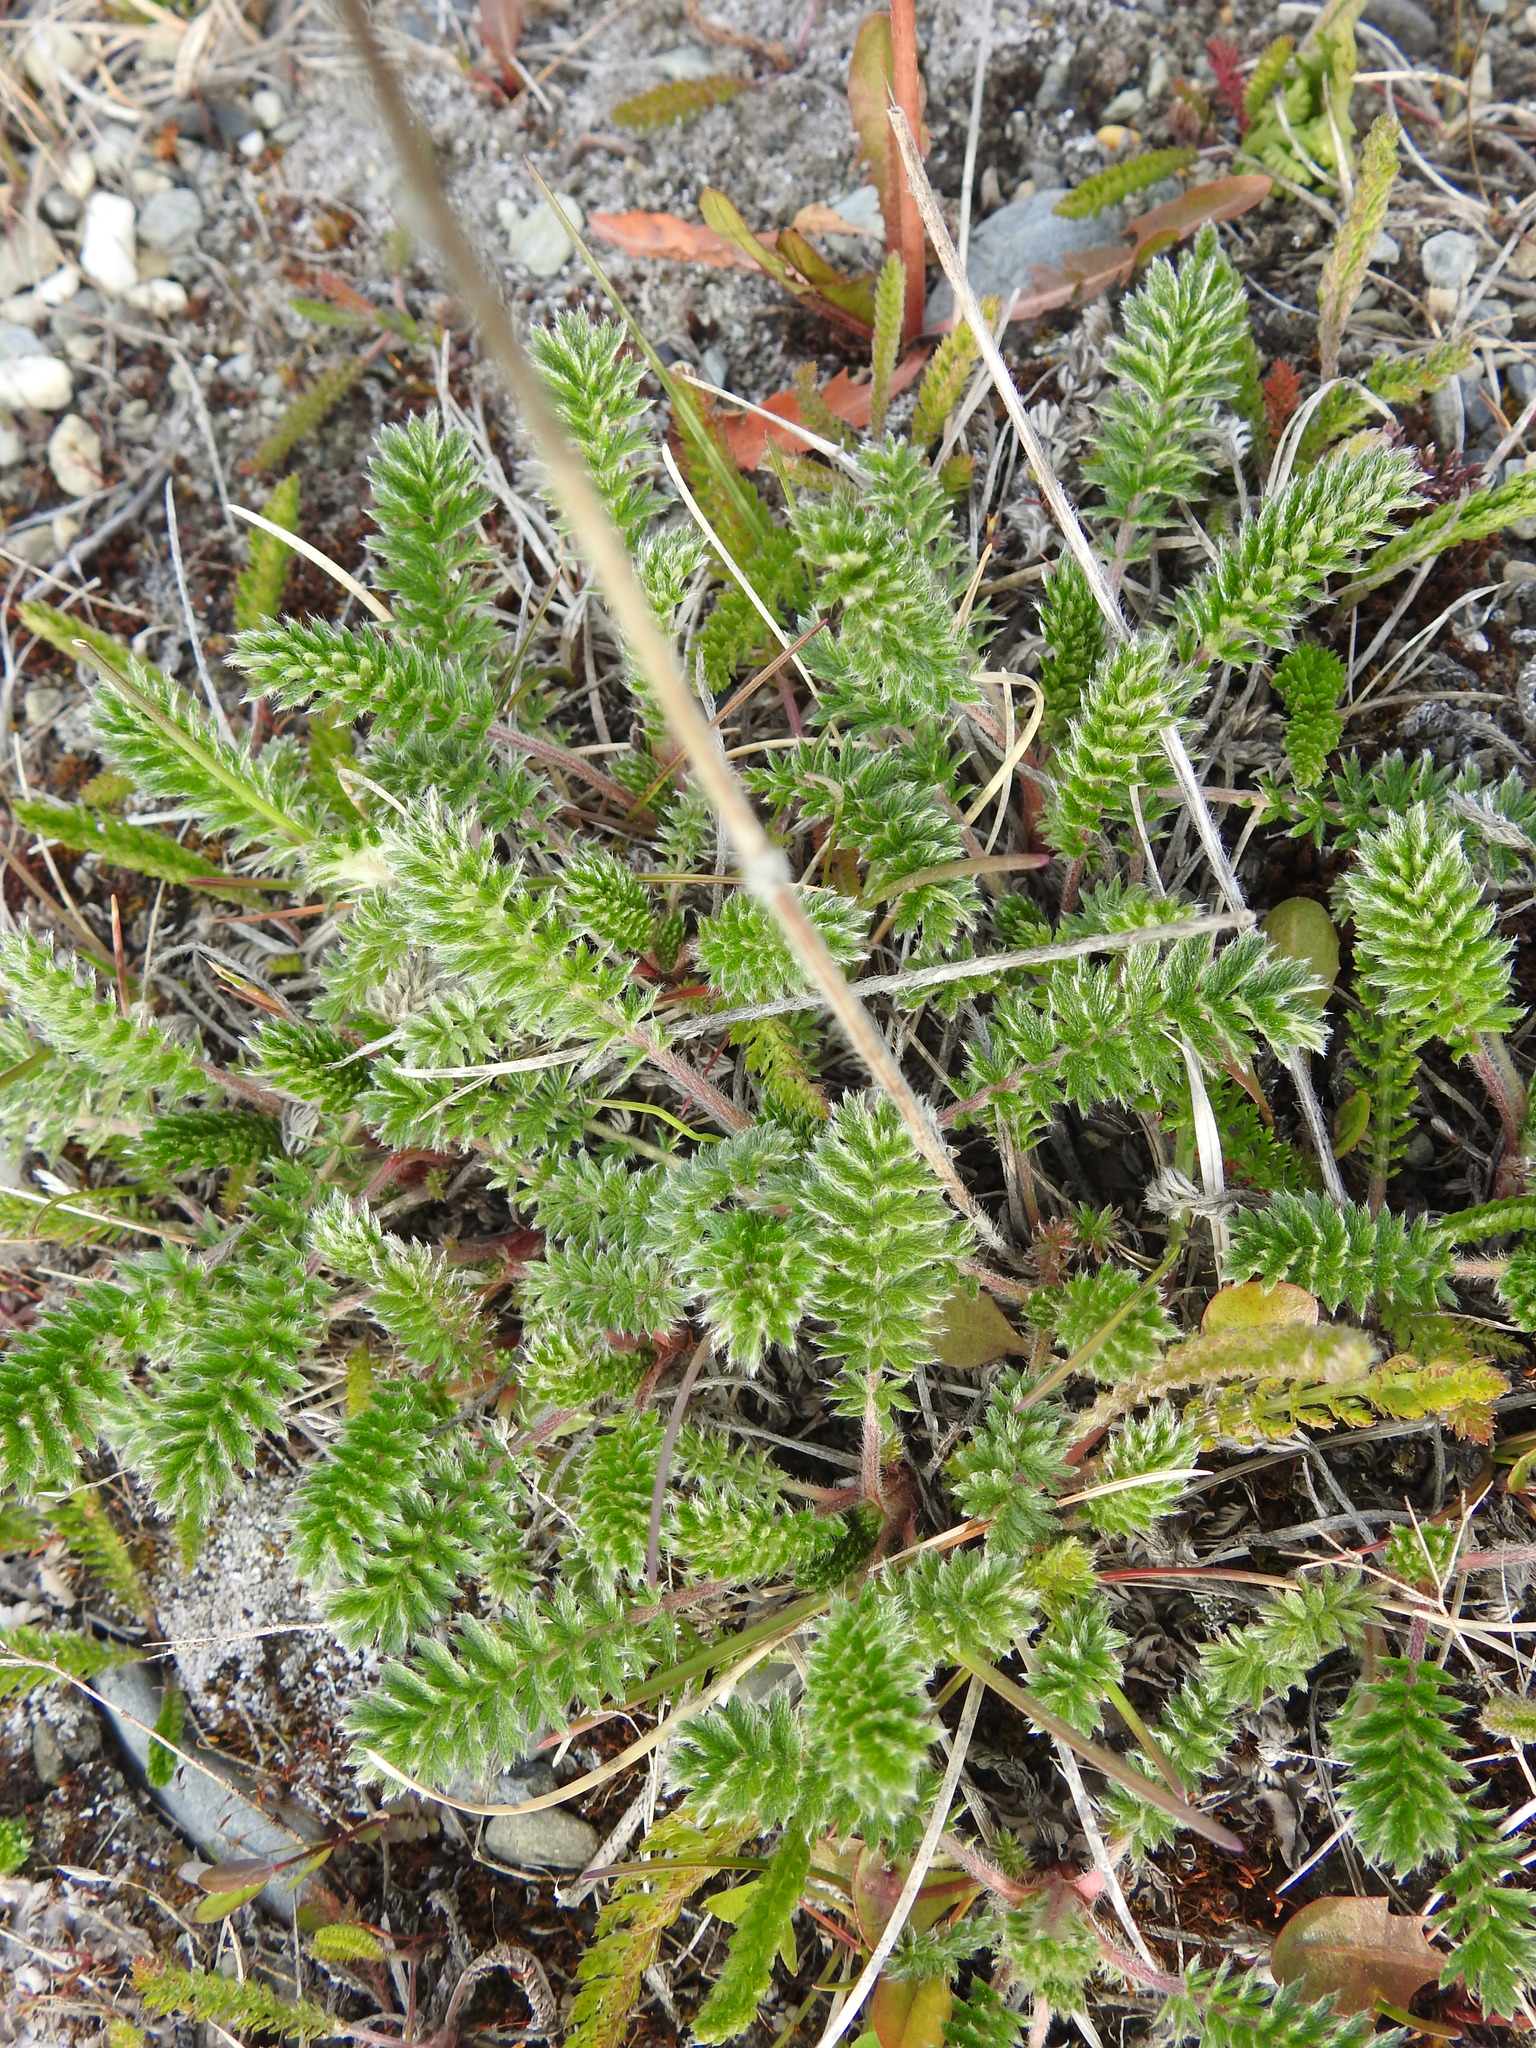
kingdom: Plantae
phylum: Tracheophyta
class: Magnoliopsida
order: Rosales
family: Rosaceae
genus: Acaena
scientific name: Acaena pinnatifida
